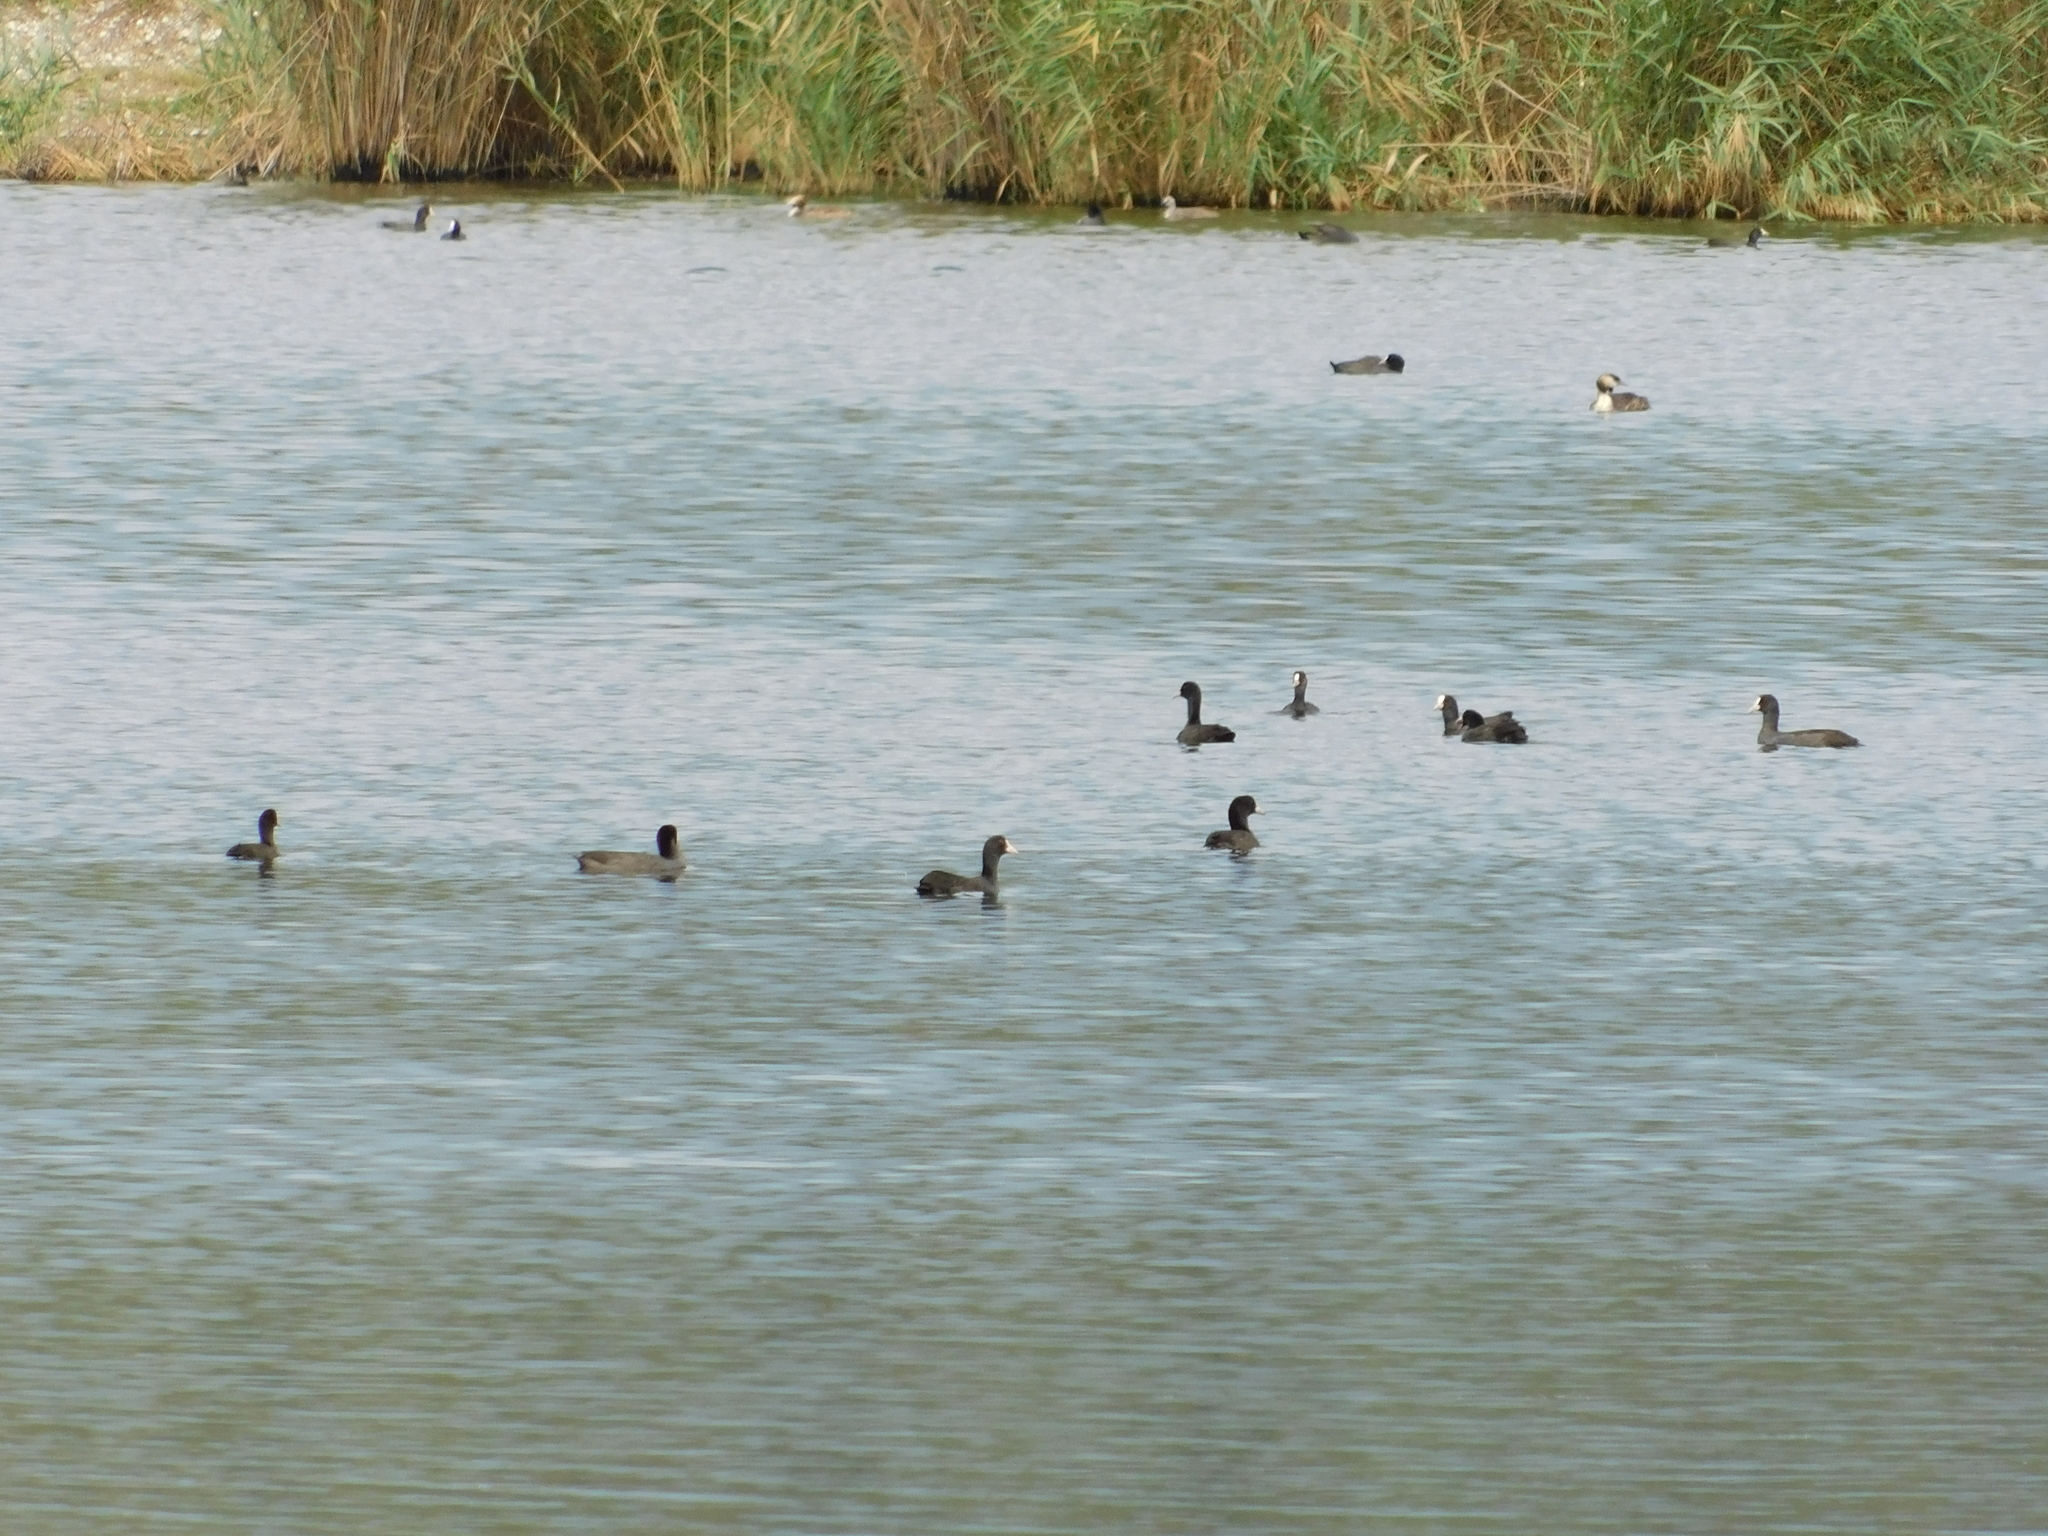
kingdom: Animalia
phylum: Chordata
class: Aves
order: Gruiformes
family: Rallidae
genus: Fulica
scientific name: Fulica atra
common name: Eurasian coot
